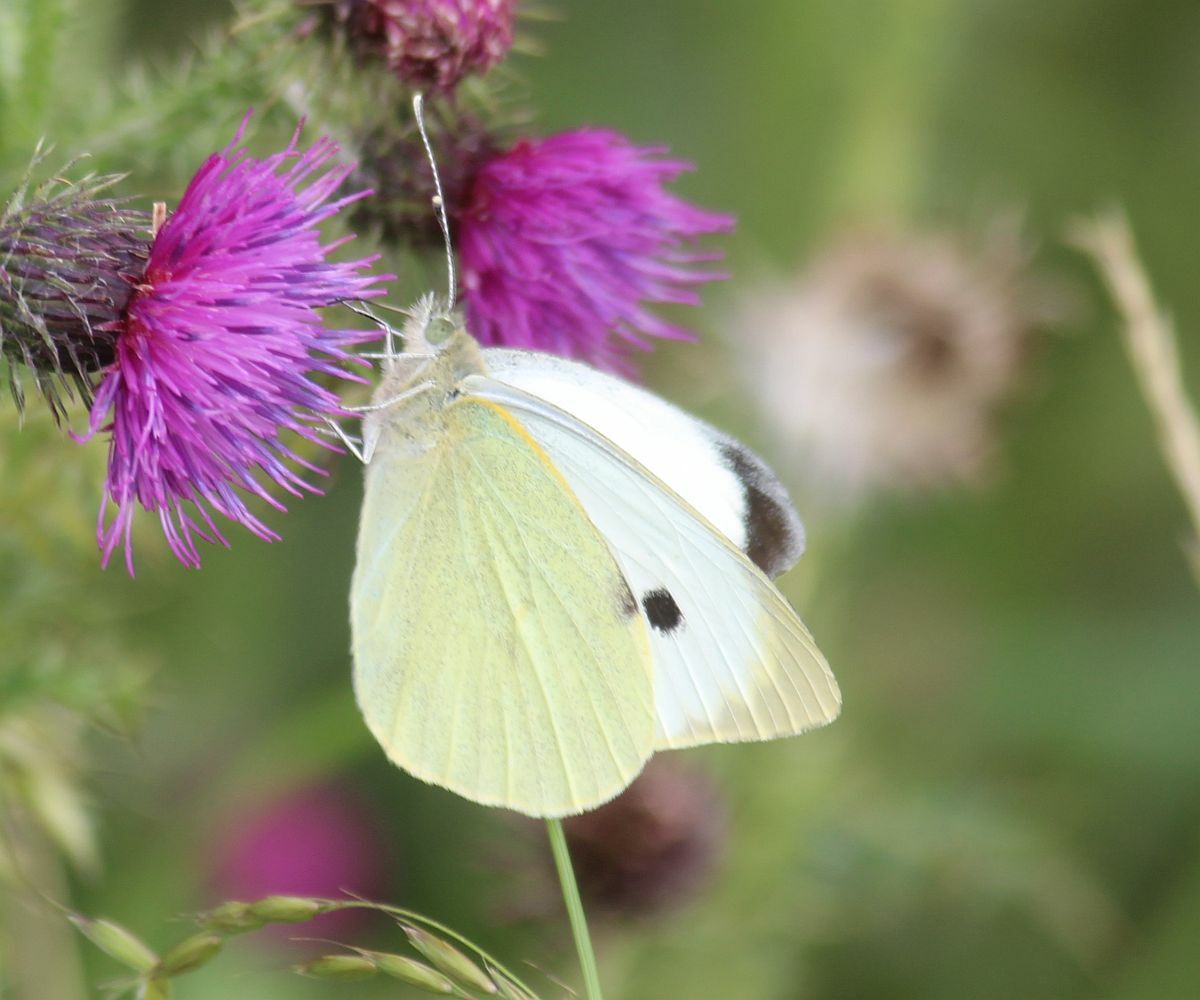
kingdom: Animalia
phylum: Arthropoda
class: Insecta
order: Lepidoptera
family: Pieridae
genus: Pieris
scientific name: Pieris brassicae
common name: Large white
